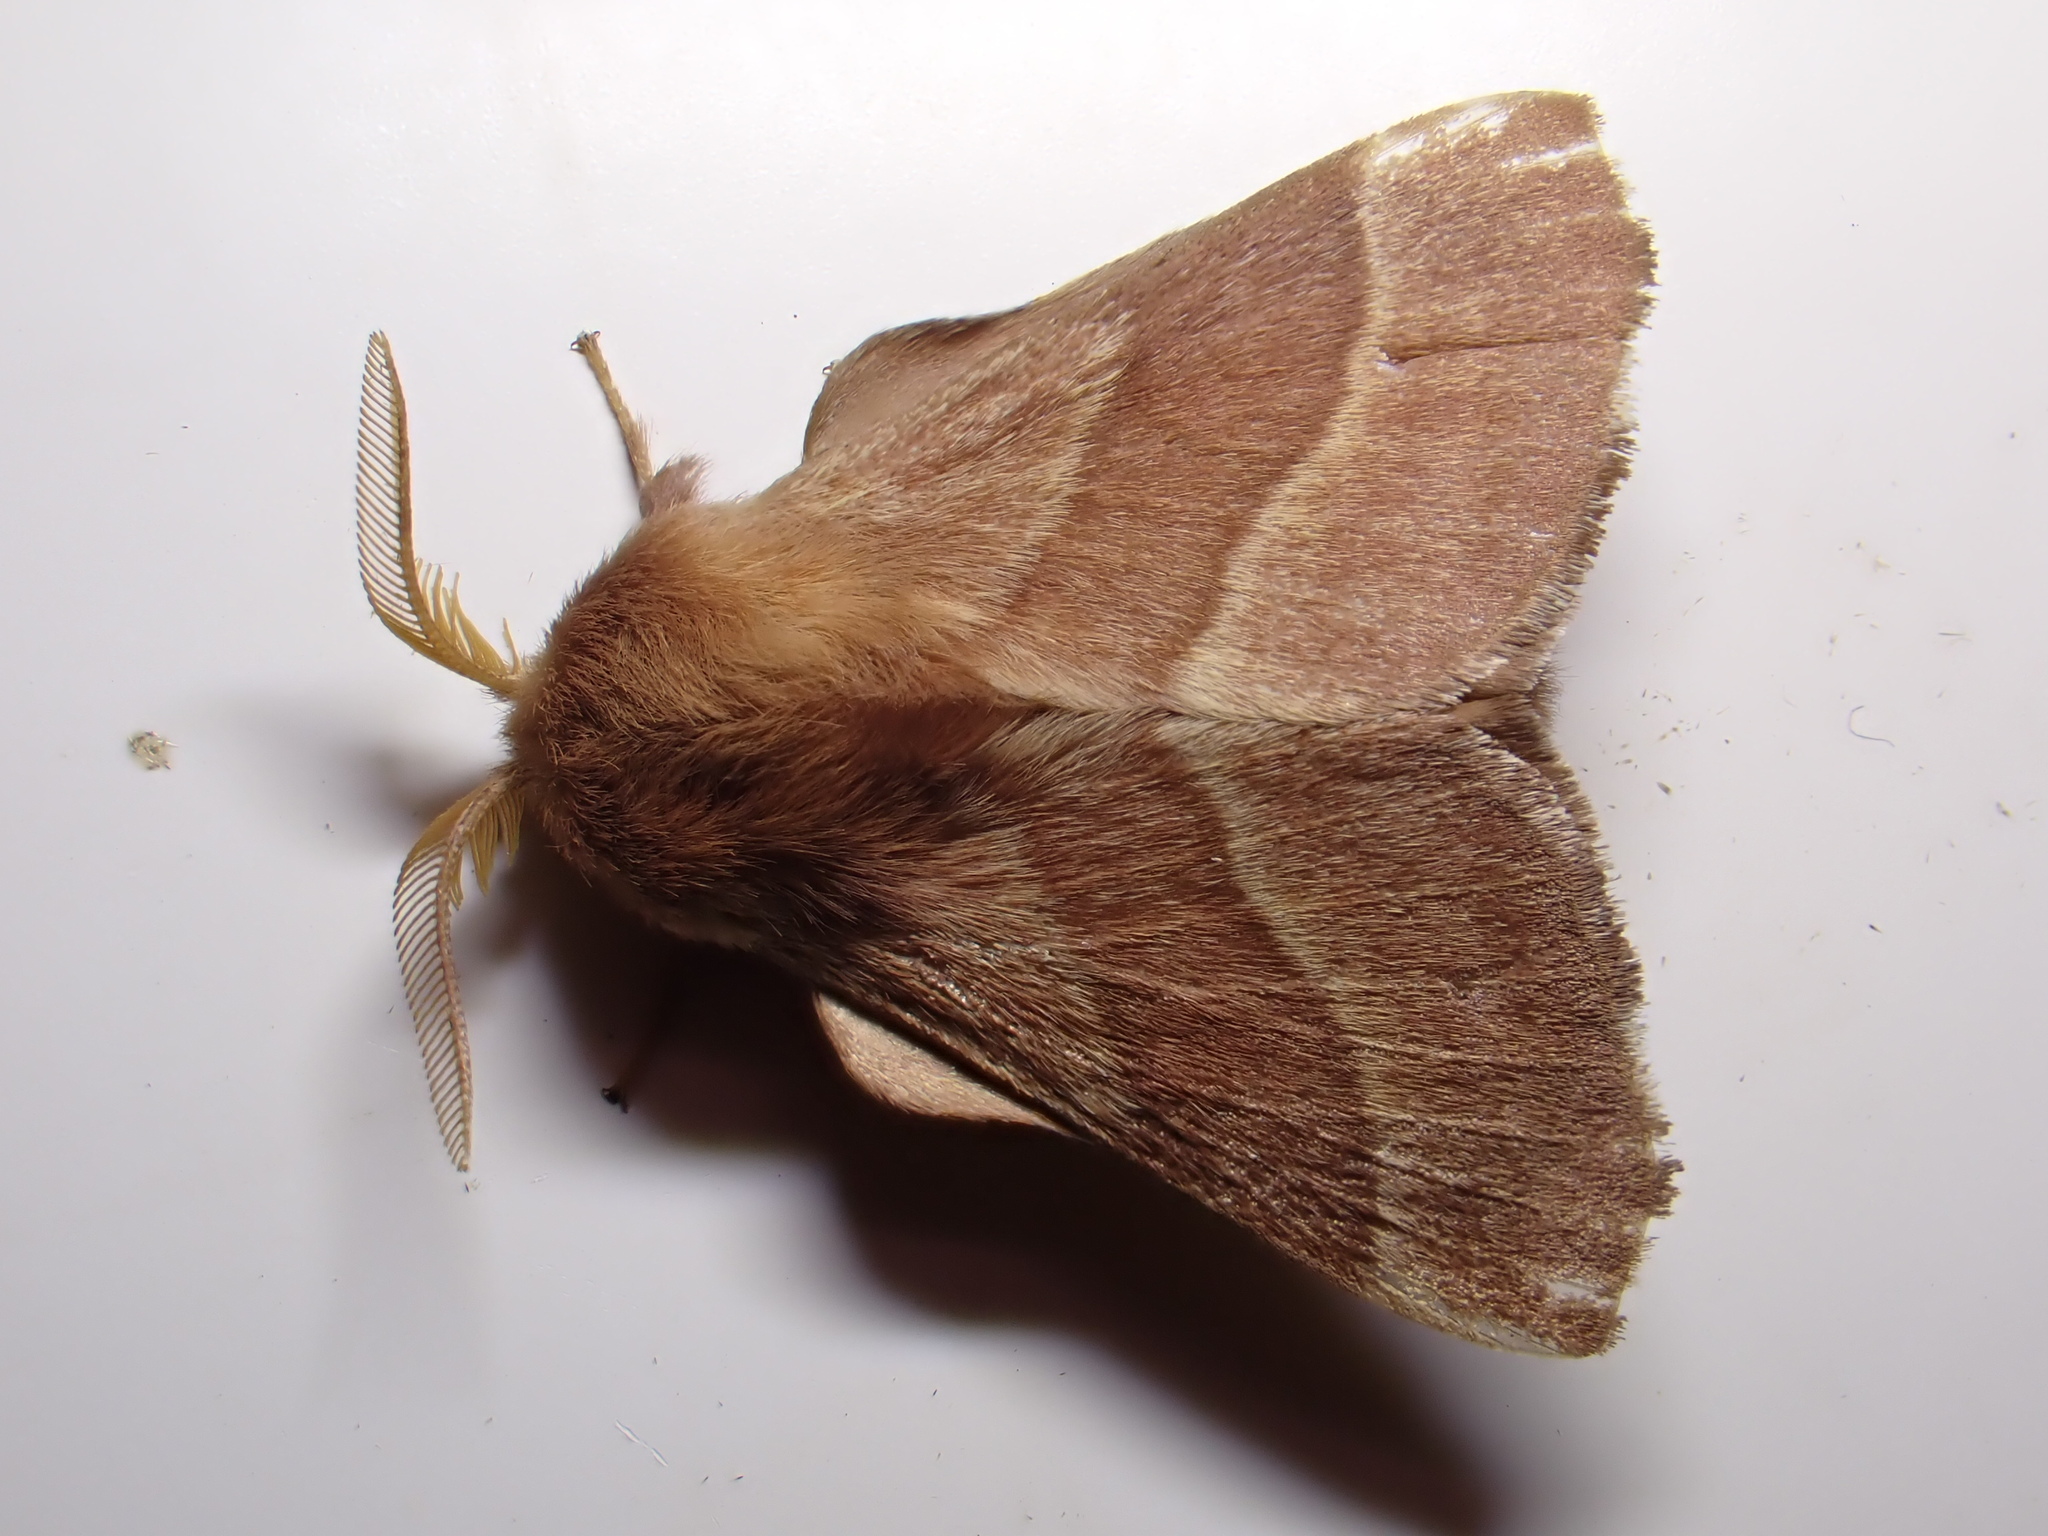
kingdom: Animalia
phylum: Arthropoda
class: Insecta
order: Lepidoptera
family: Lasiocampidae
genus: Malacosoma
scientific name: Malacosoma neustria
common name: The lackey
